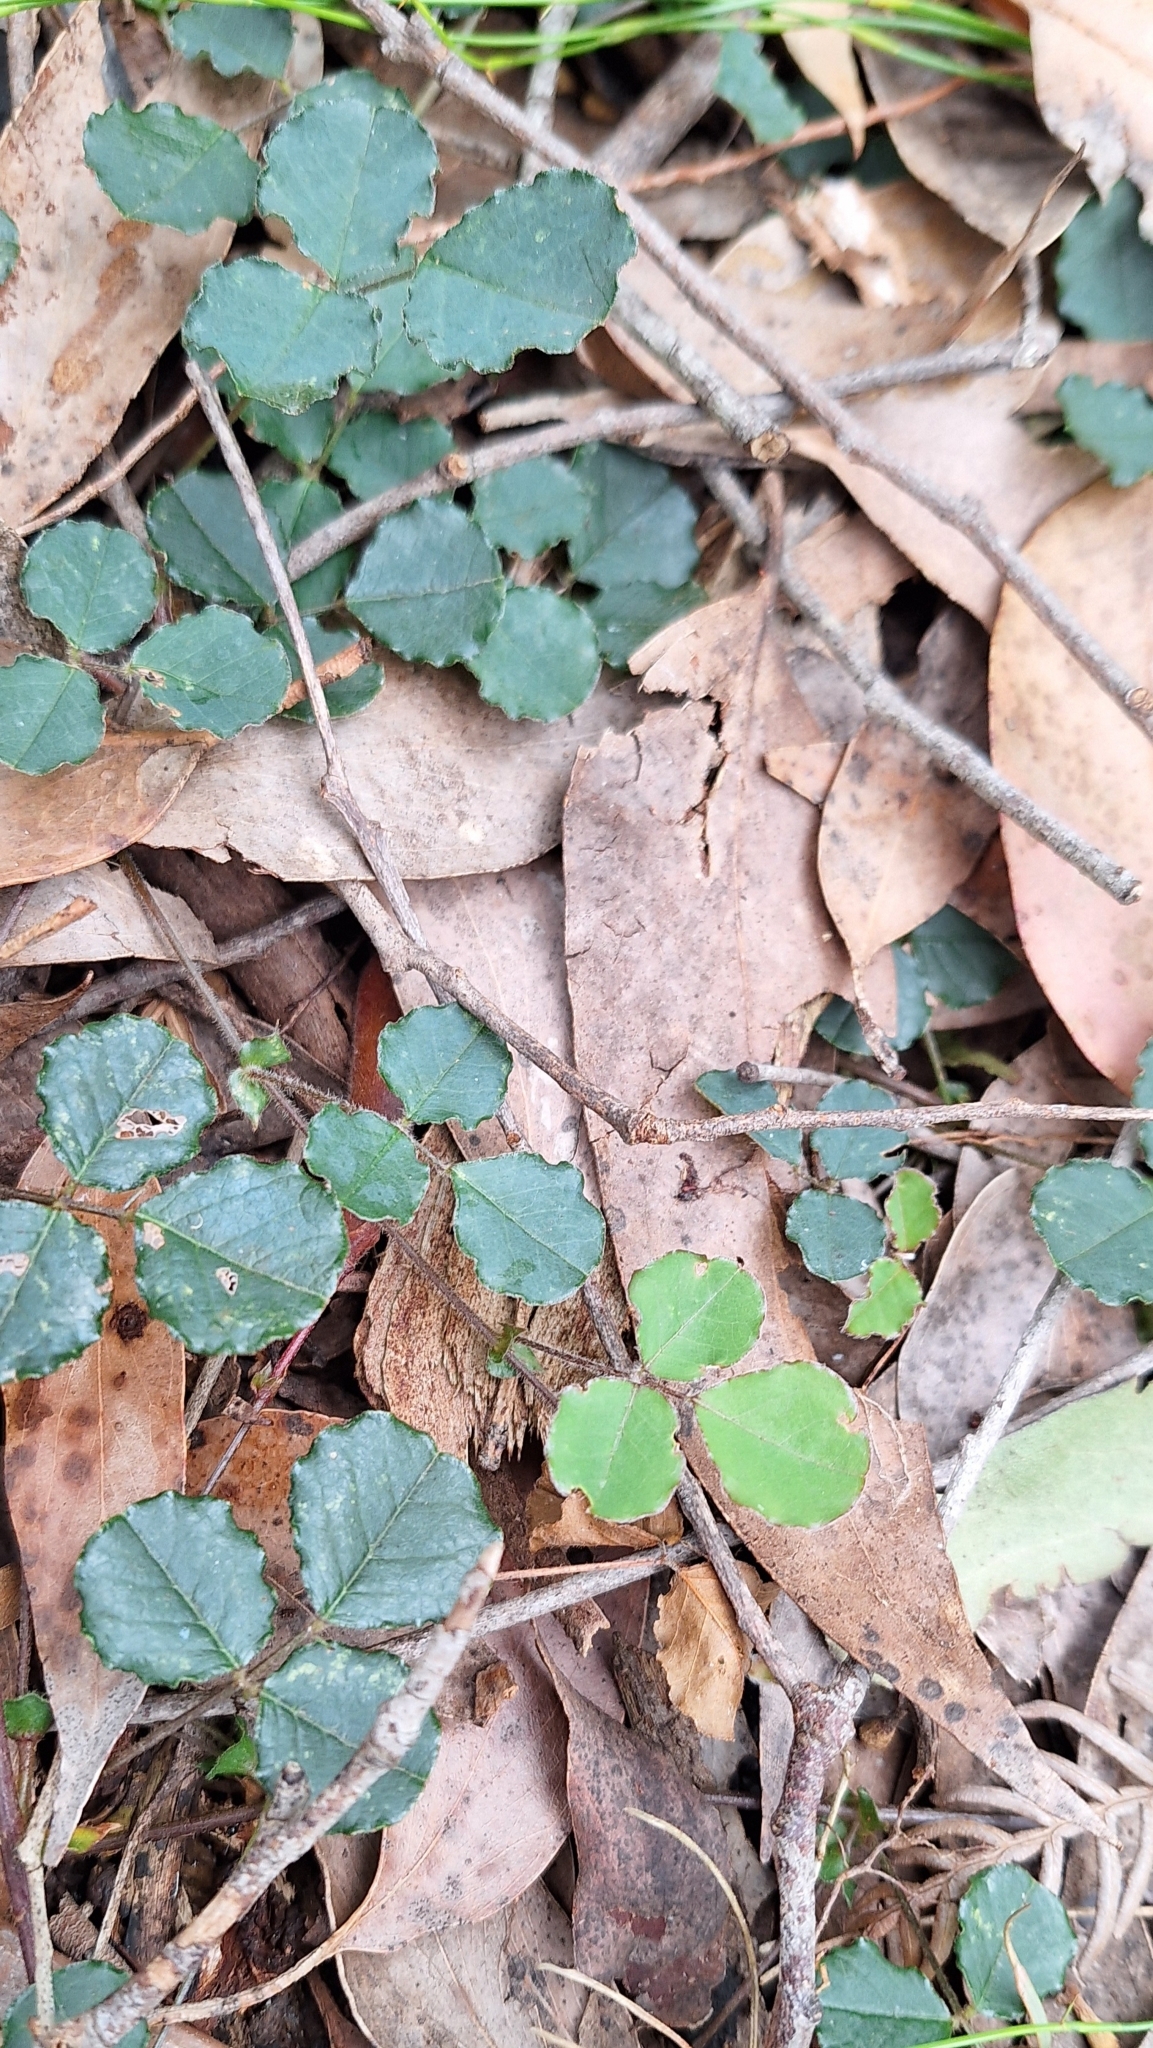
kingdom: Plantae
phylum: Tracheophyta
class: Magnoliopsida
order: Fabales
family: Fabaceae
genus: Kennedia
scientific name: Kennedia prostrata
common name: Running-postman
